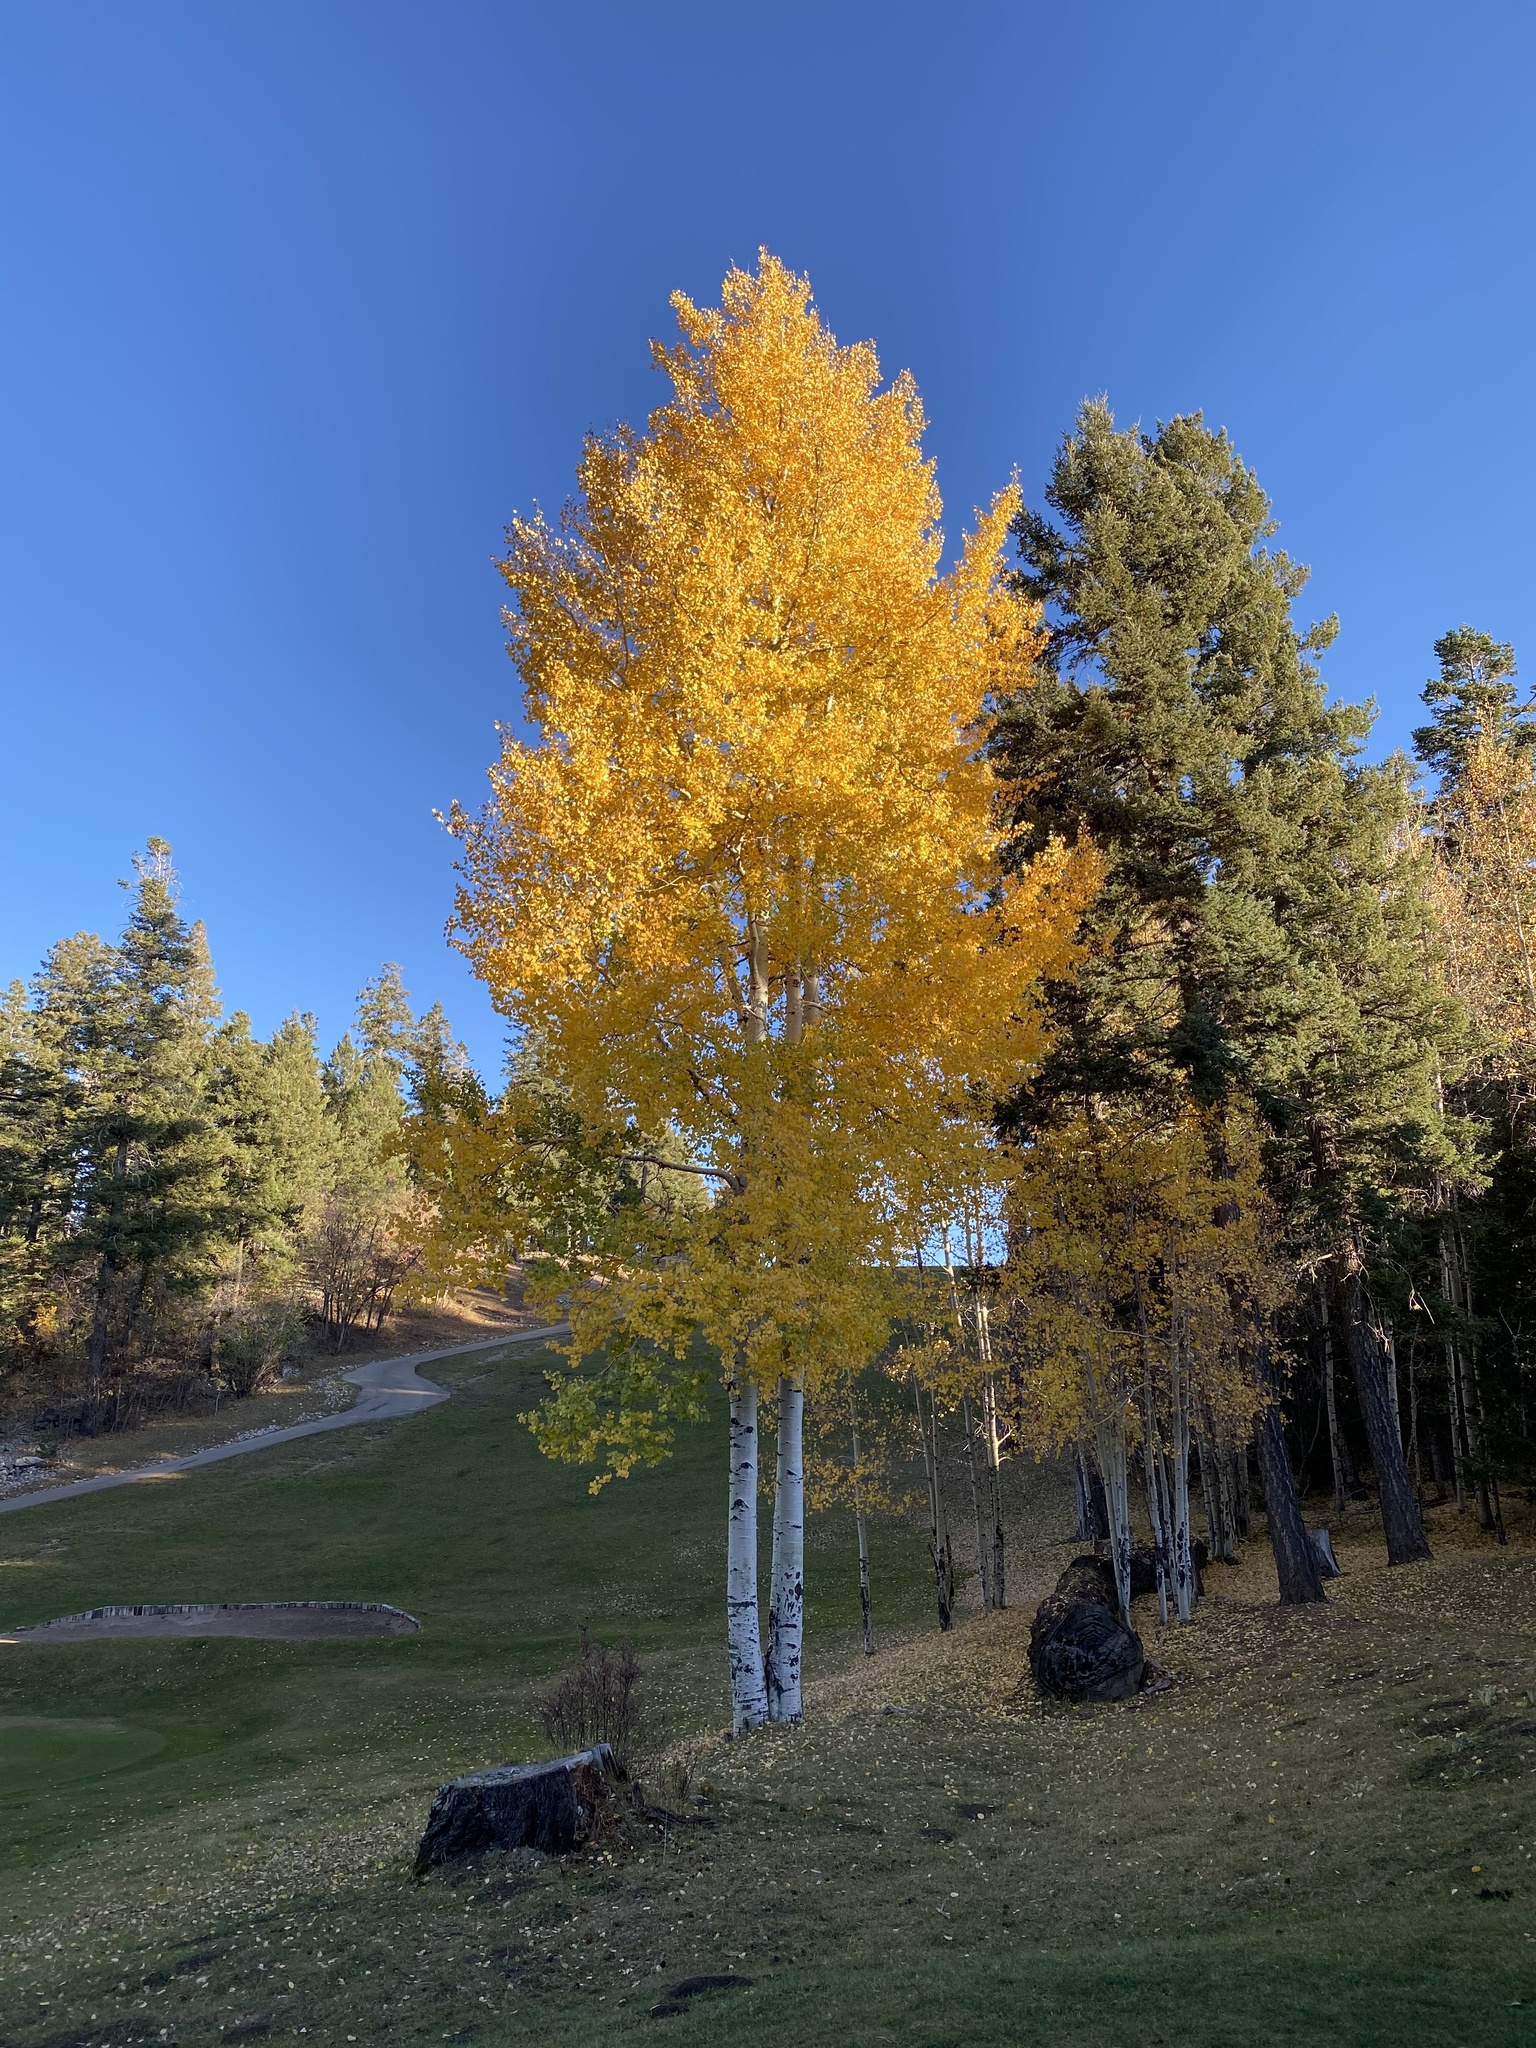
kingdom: Plantae
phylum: Tracheophyta
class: Magnoliopsida
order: Malpighiales
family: Salicaceae
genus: Populus
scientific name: Populus tremuloides
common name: Quaking aspen
